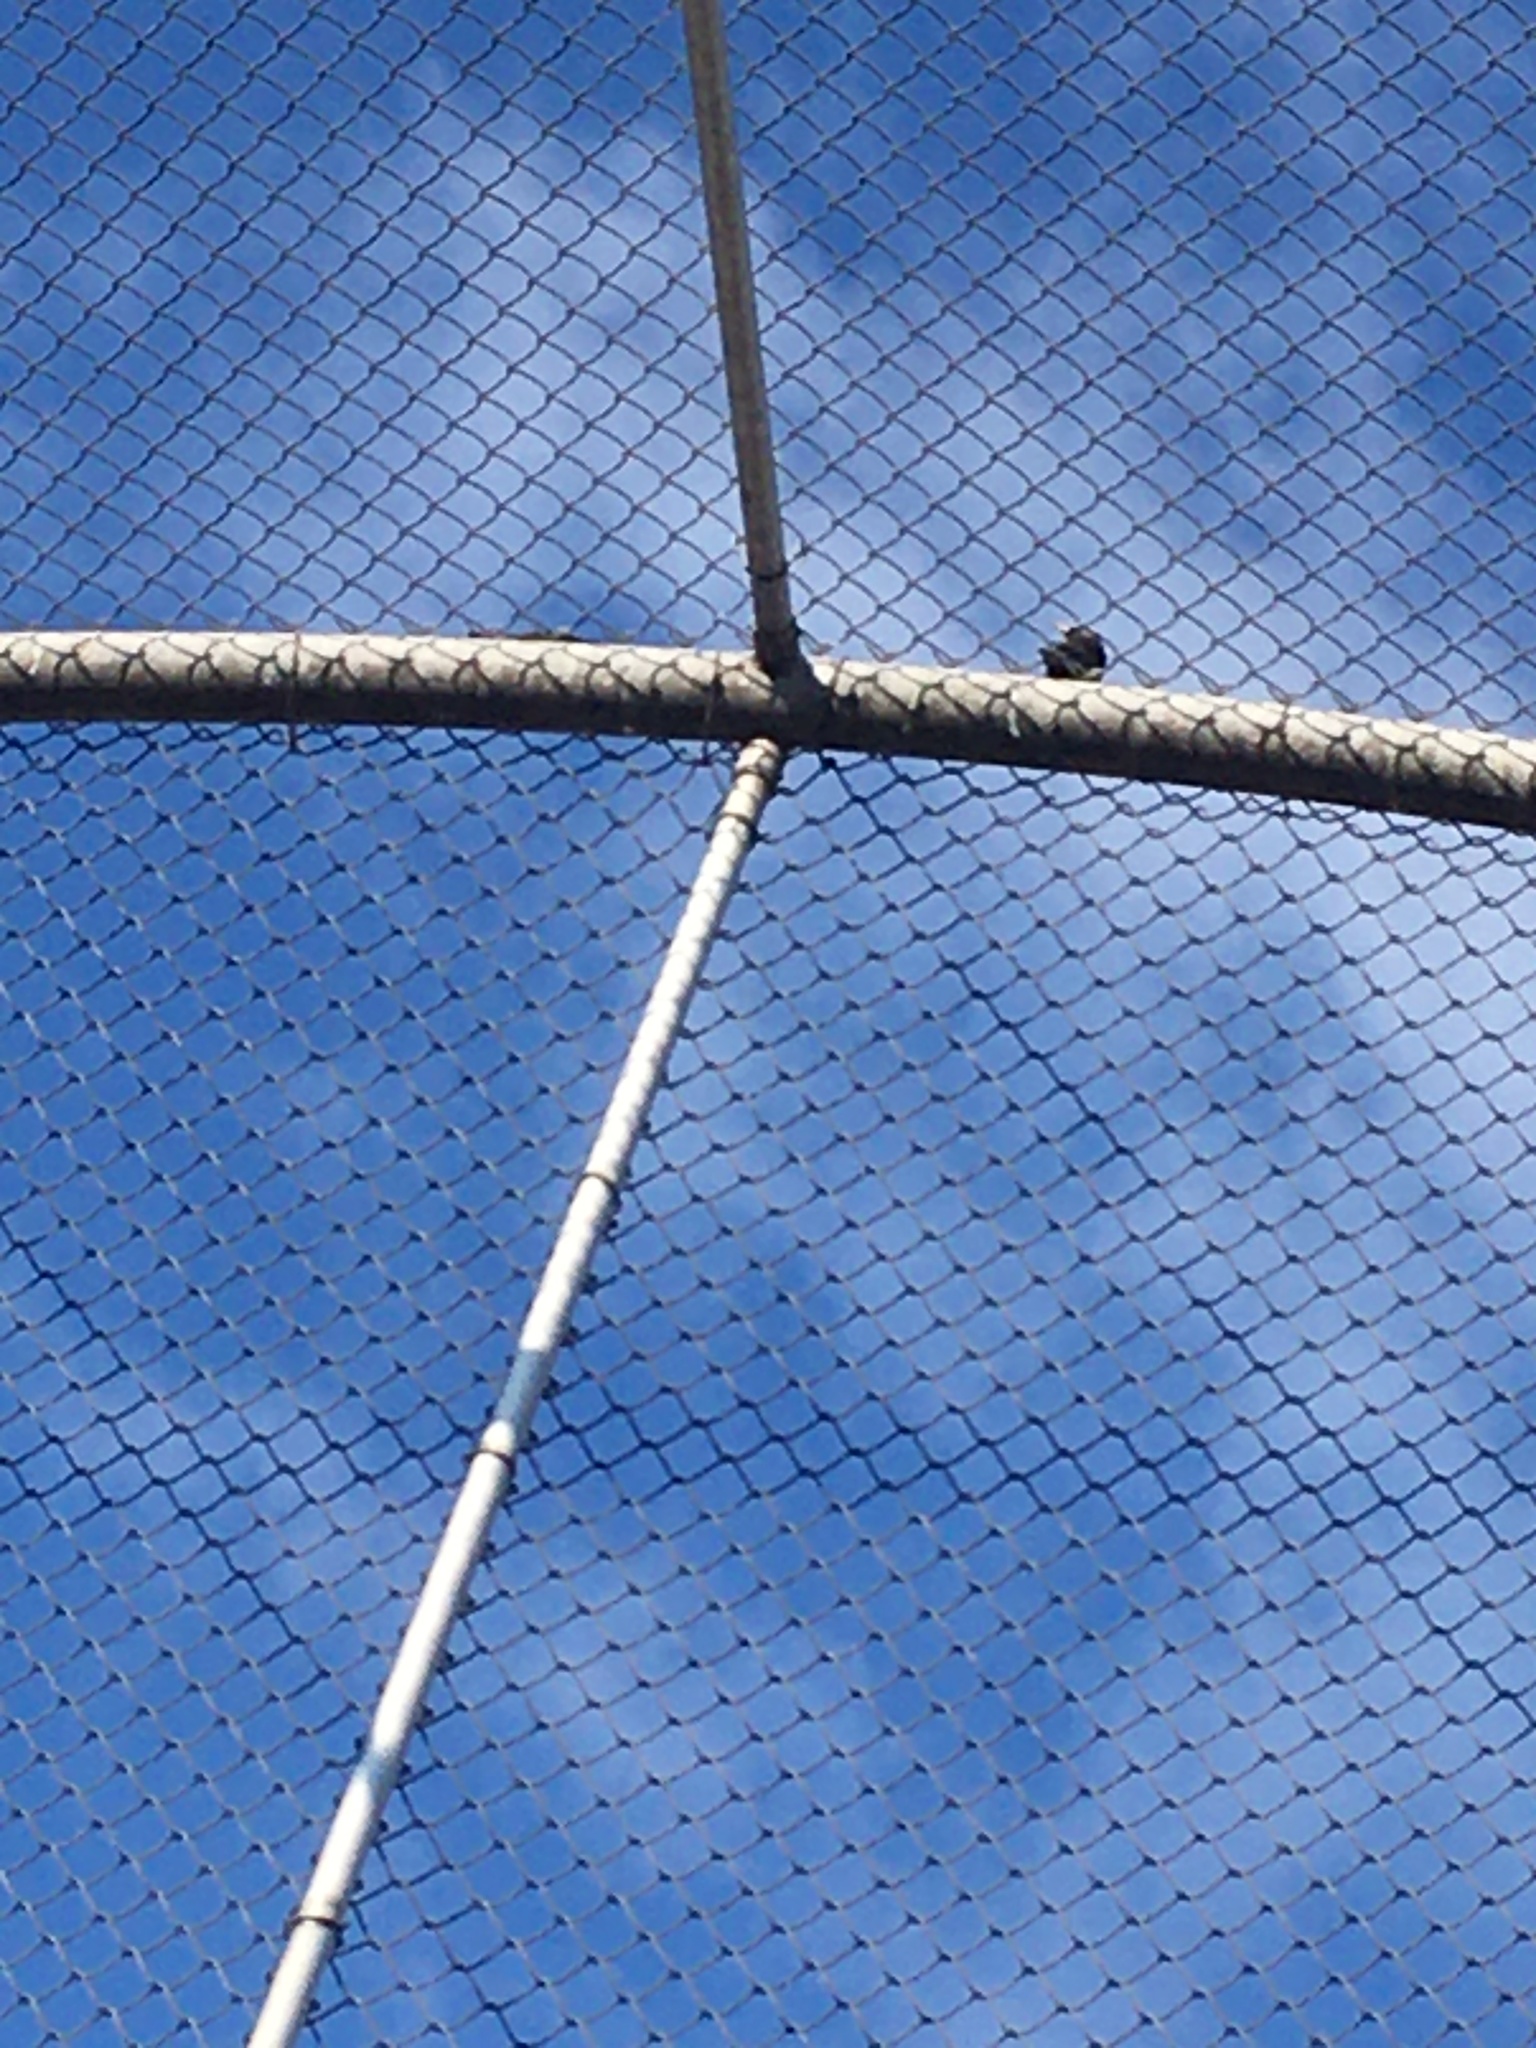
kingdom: Animalia
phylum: Chordata
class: Aves
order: Passeriformes
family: Sturnidae
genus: Sturnus
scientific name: Sturnus vulgaris
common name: Common starling
